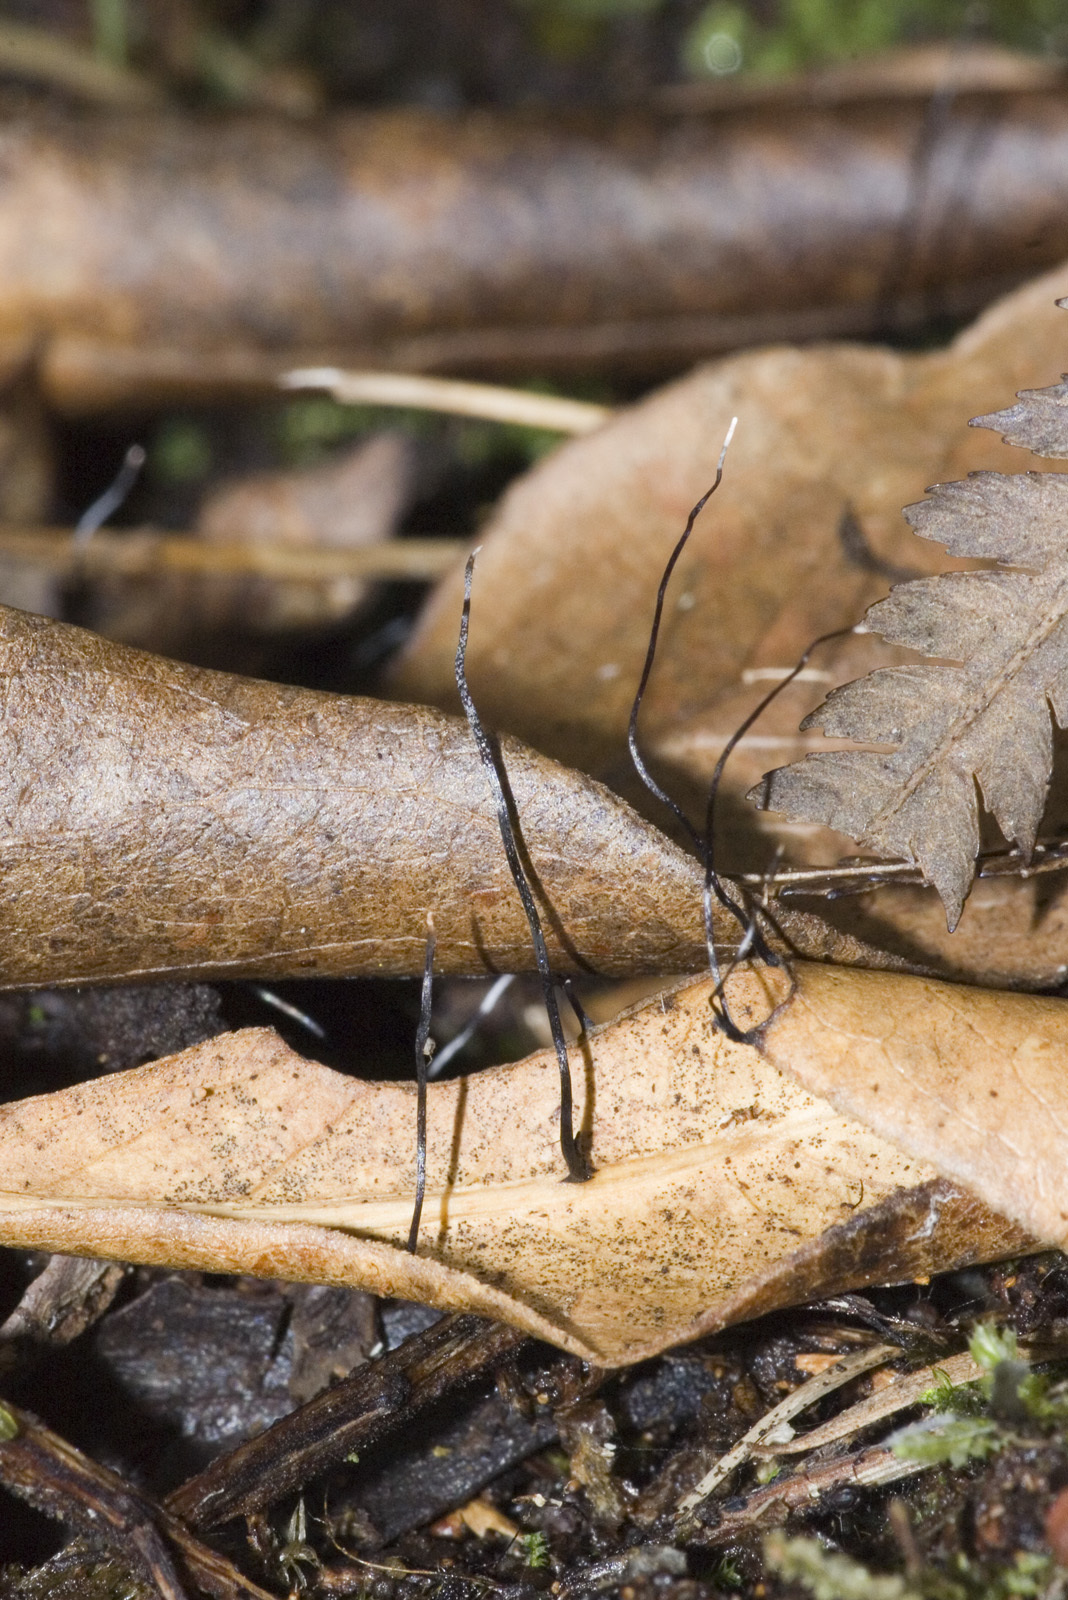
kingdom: Fungi
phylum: Ascomycota
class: Sordariomycetes
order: Xylariales
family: Xylariaceae
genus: Xylaria
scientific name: Xylaria filiformis
